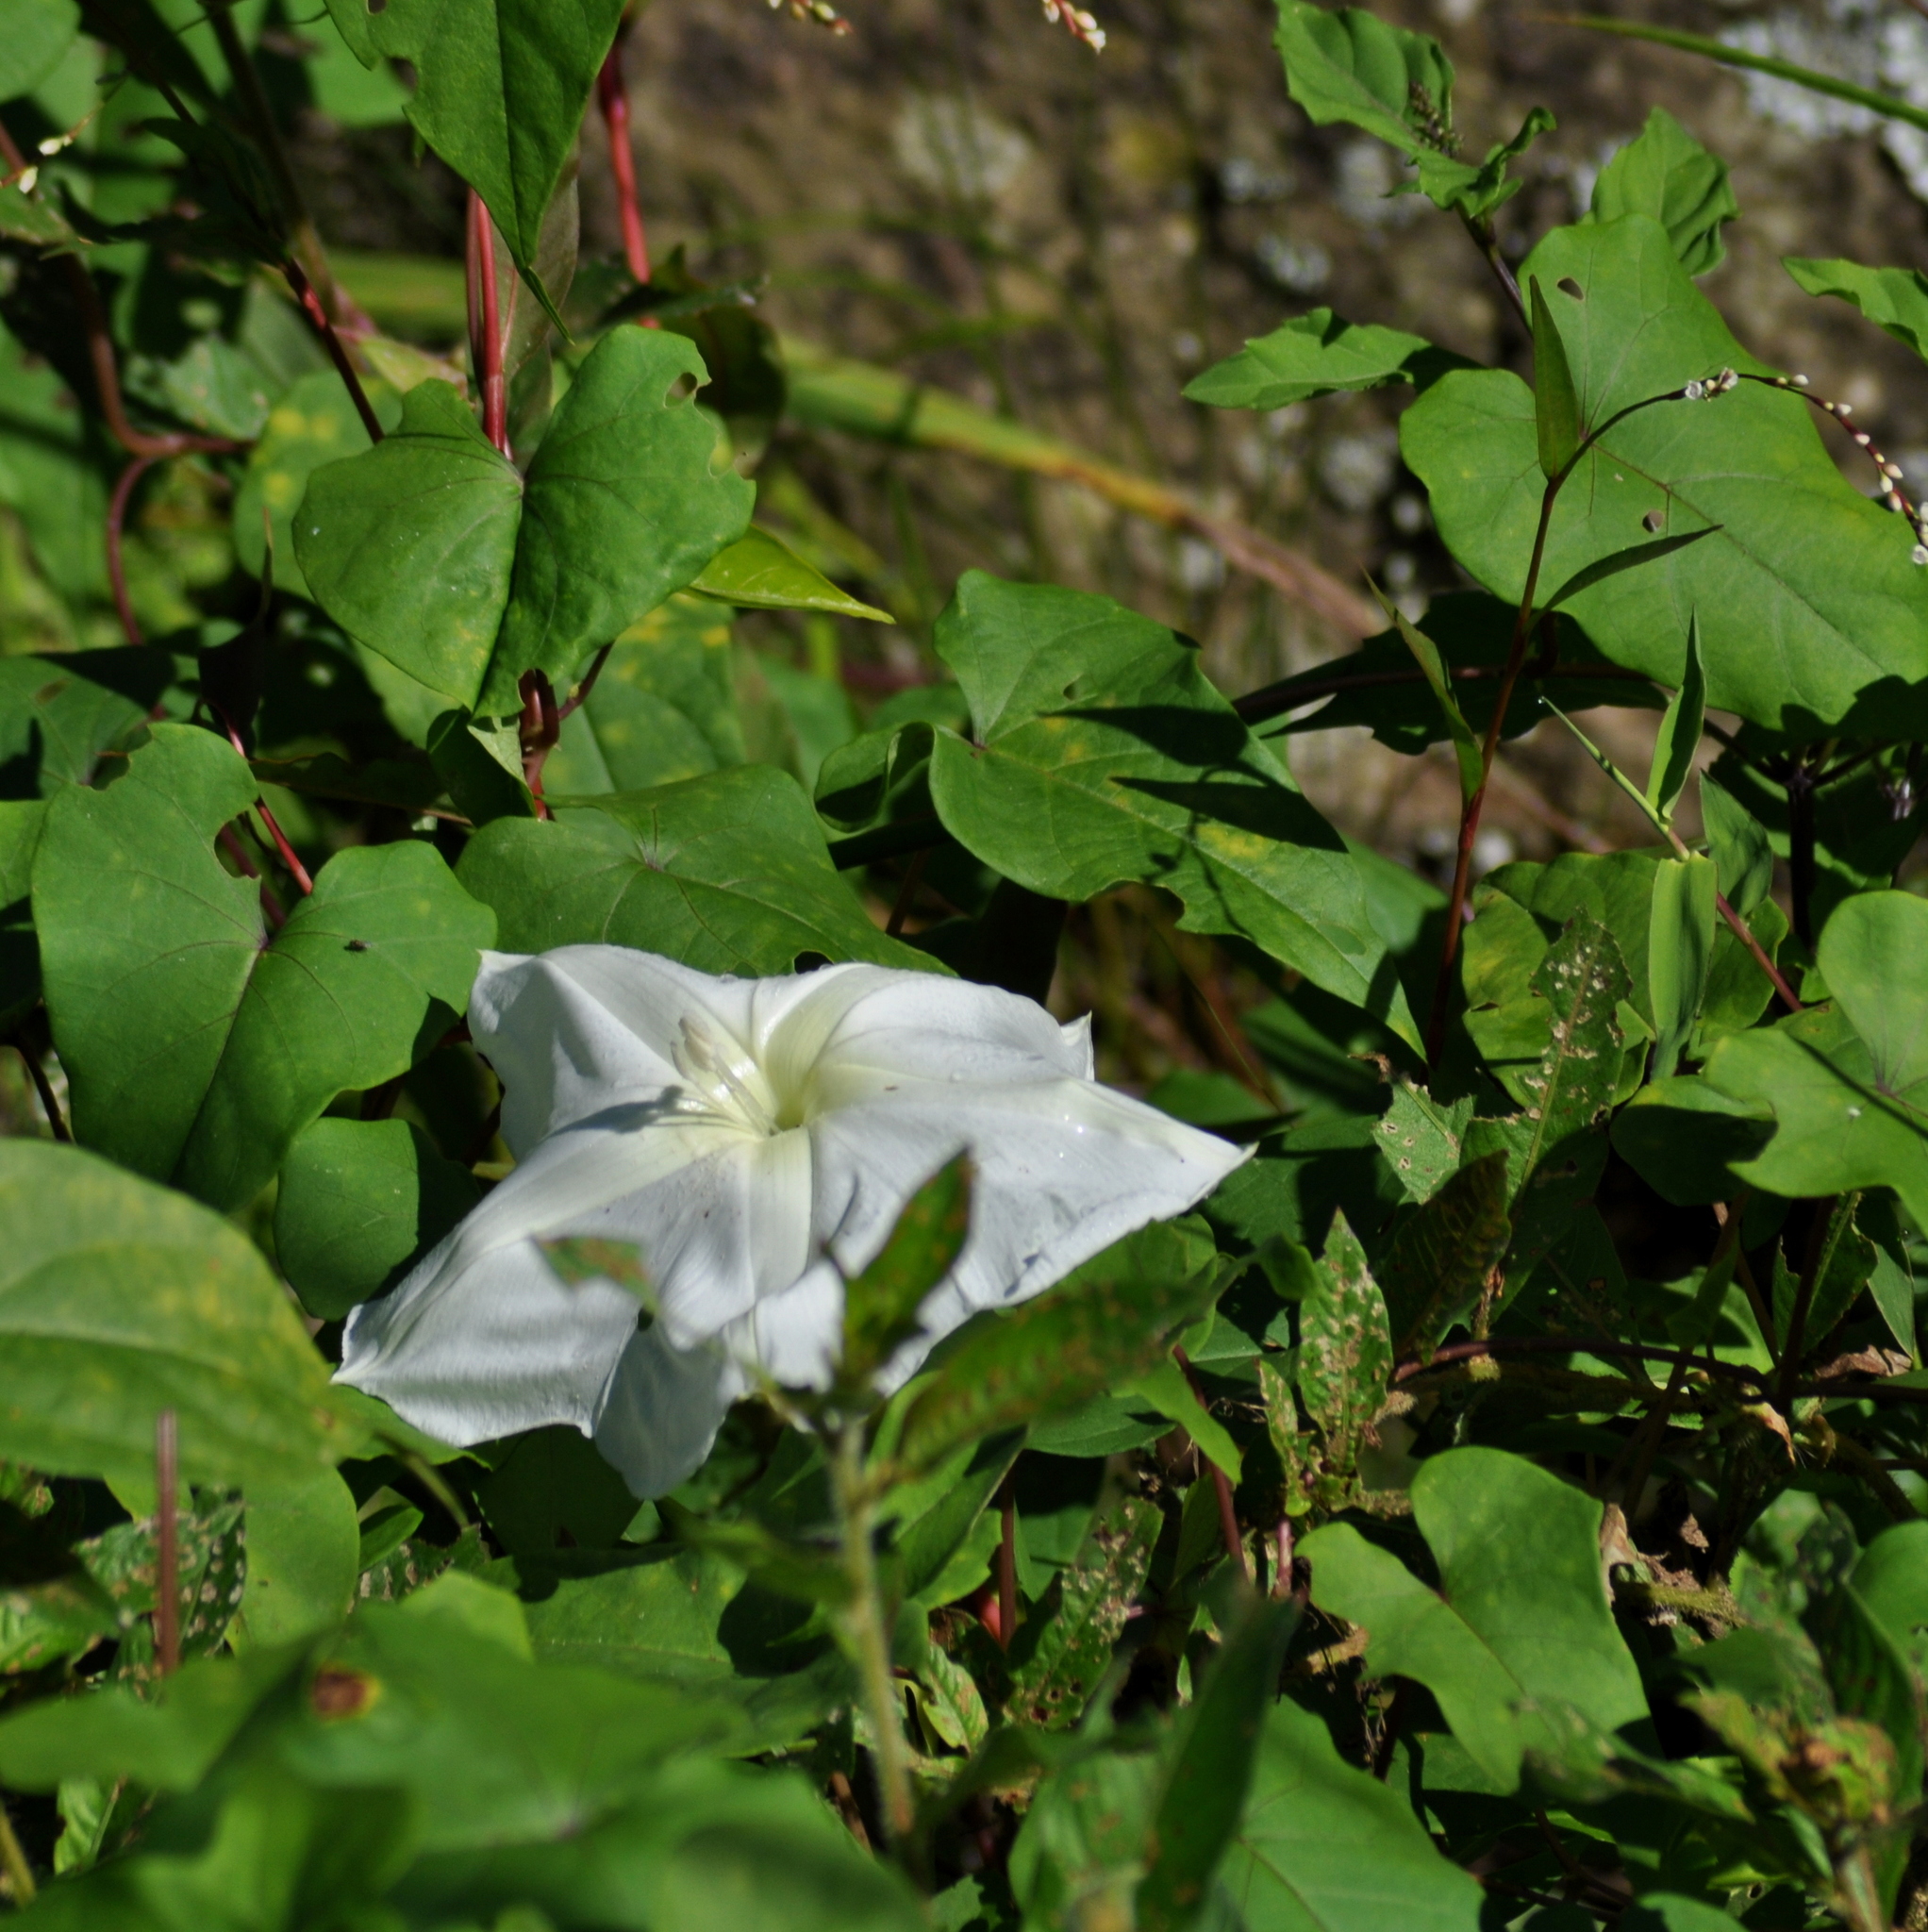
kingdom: Plantae
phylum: Tracheophyta
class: Magnoliopsida
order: Solanales
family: Convolvulaceae
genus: Ipomoea
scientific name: Ipomoea alba
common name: Moonflower
